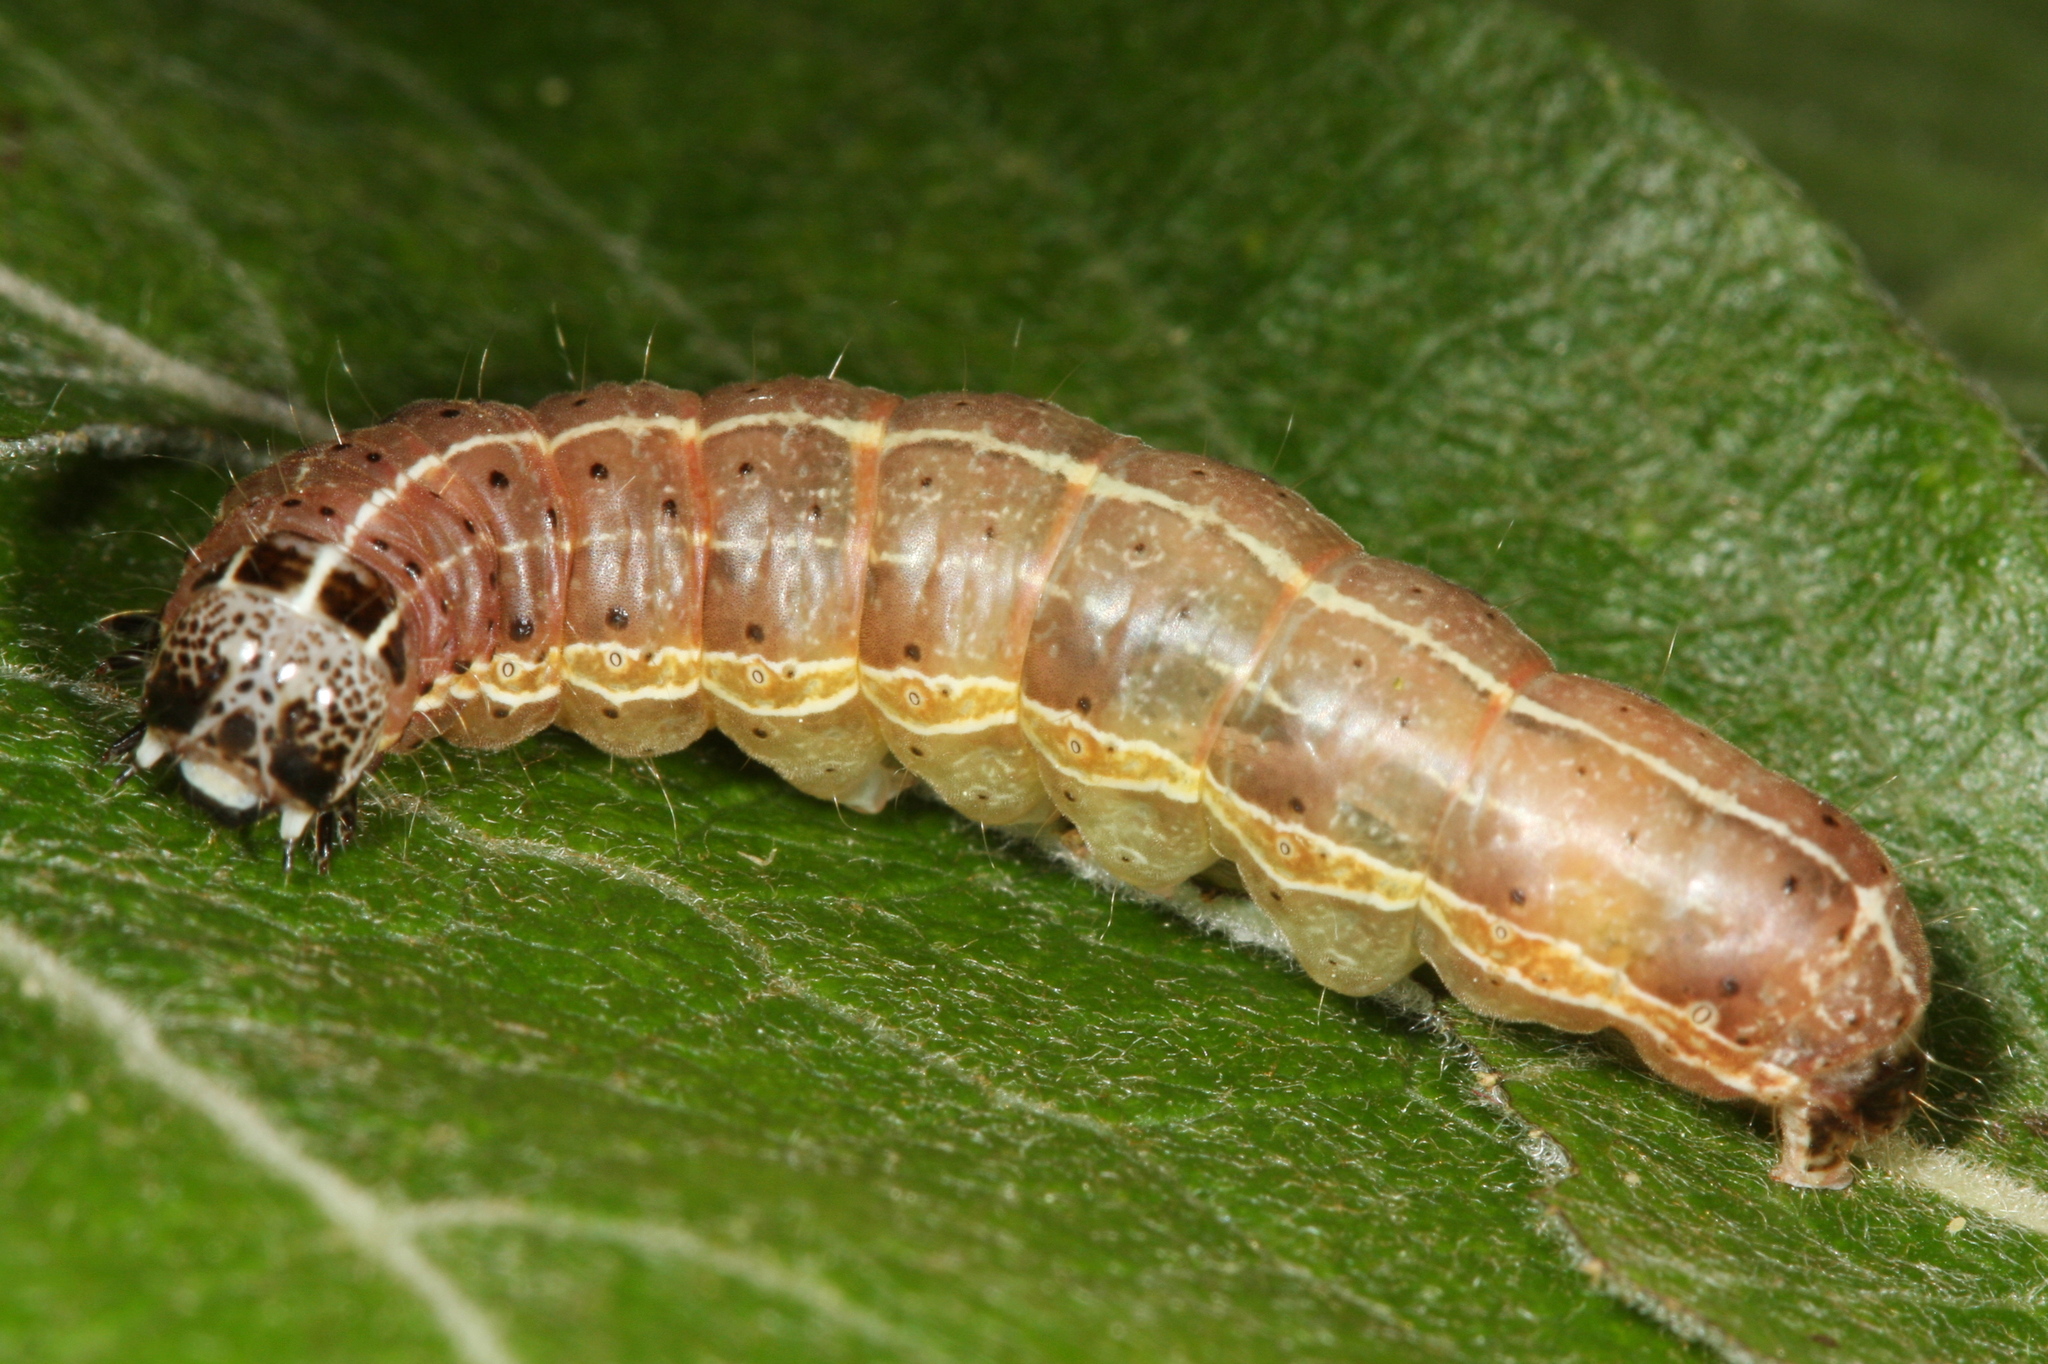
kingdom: Animalia
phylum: Arthropoda
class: Insecta
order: Lepidoptera
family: Noctuidae
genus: Orthosia
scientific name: Orthosia cruda
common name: Small quaker
